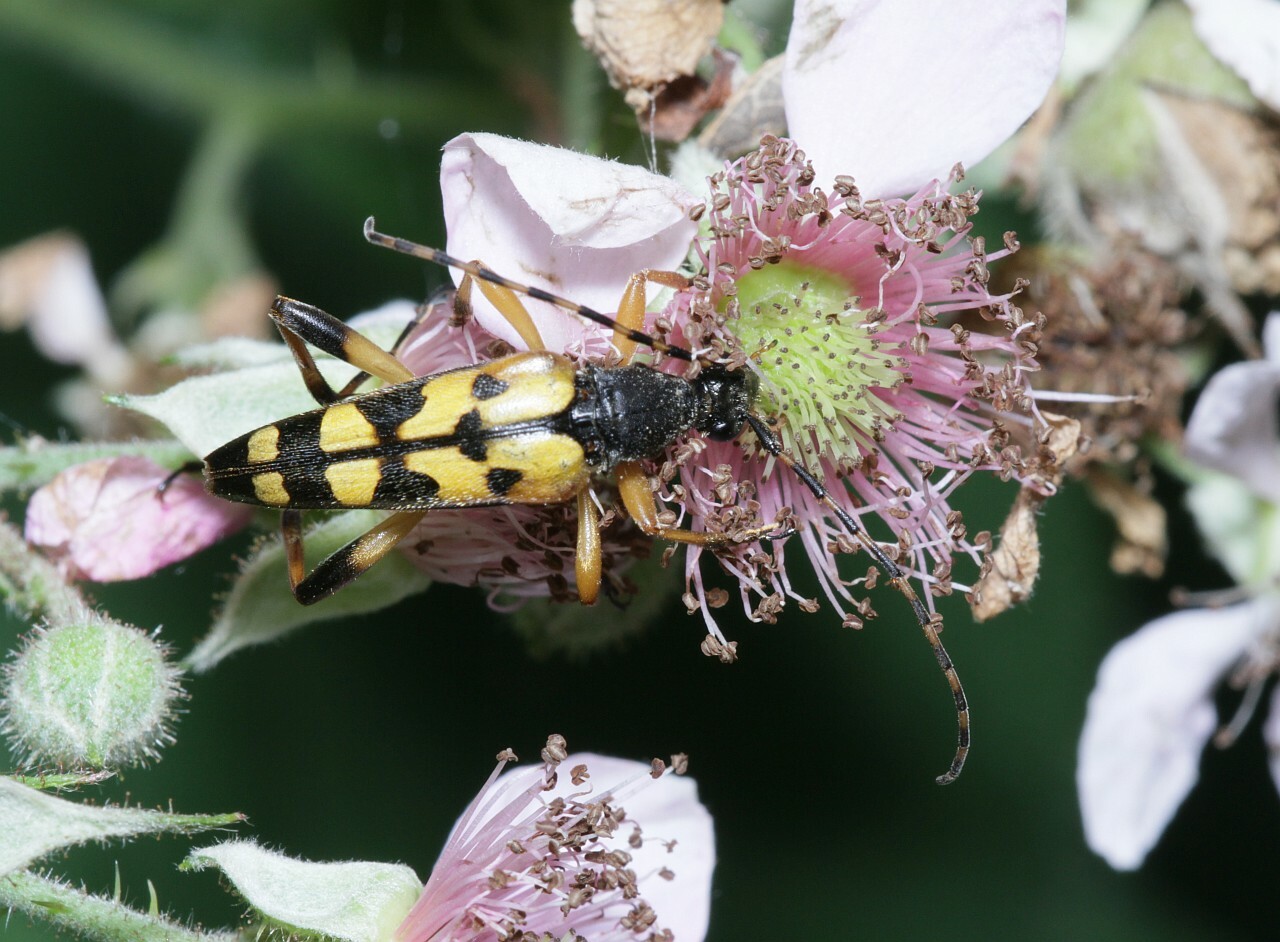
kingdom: Animalia
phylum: Arthropoda
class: Insecta
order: Coleoptera
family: Cerambycidae
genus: Rutpela
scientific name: Rutpela maculata
